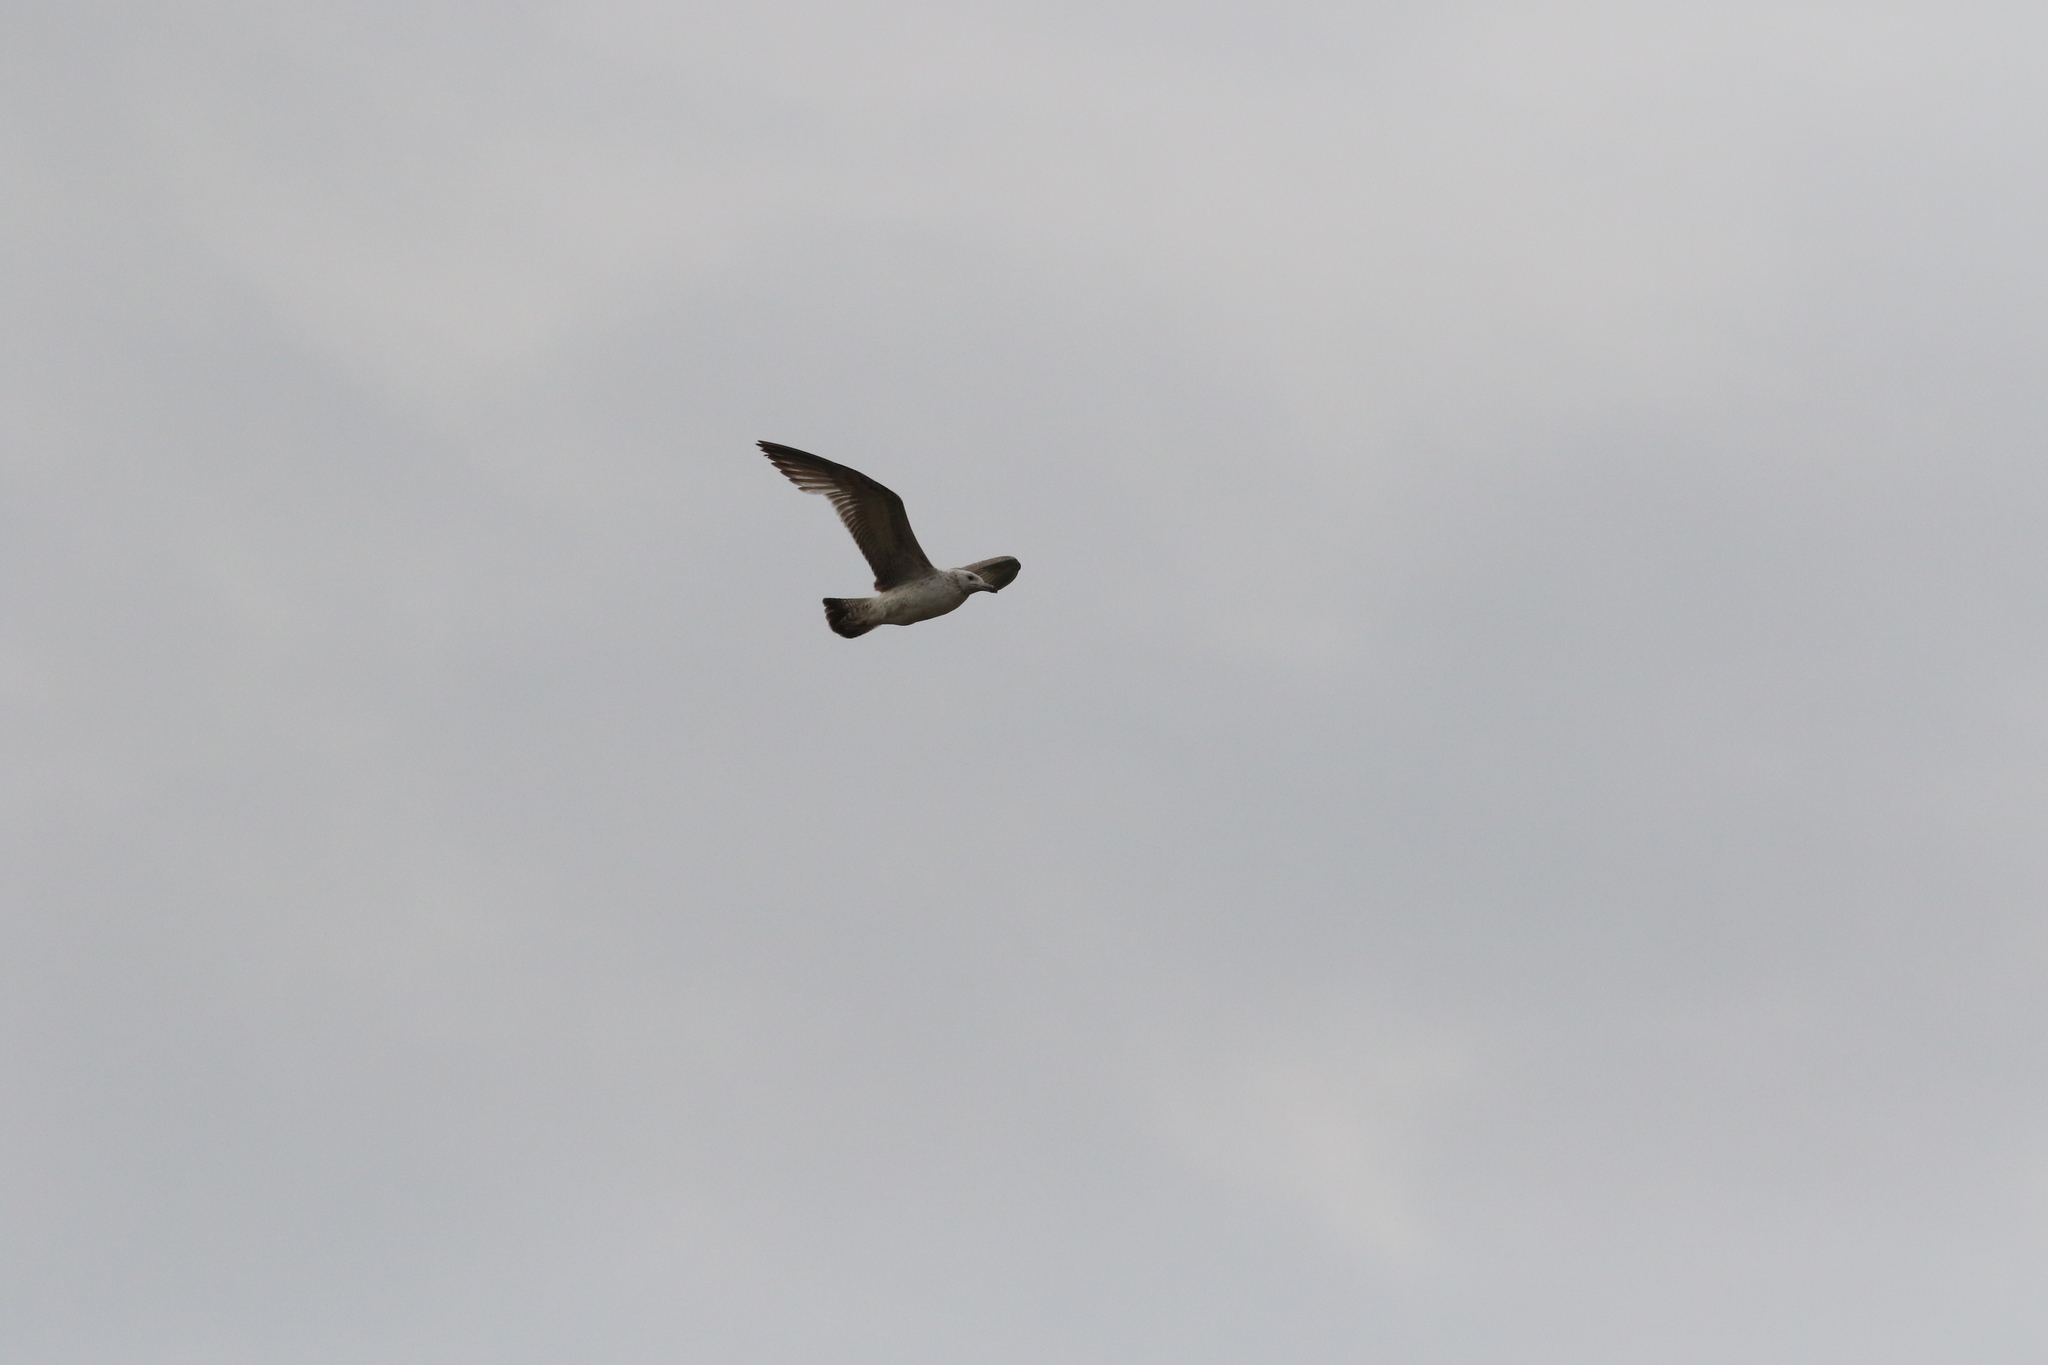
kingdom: Animalia
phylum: Chordata
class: Aves
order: Charadriiformes
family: Laridae
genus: Larus
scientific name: Larus cachinnans
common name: Caspian gull
